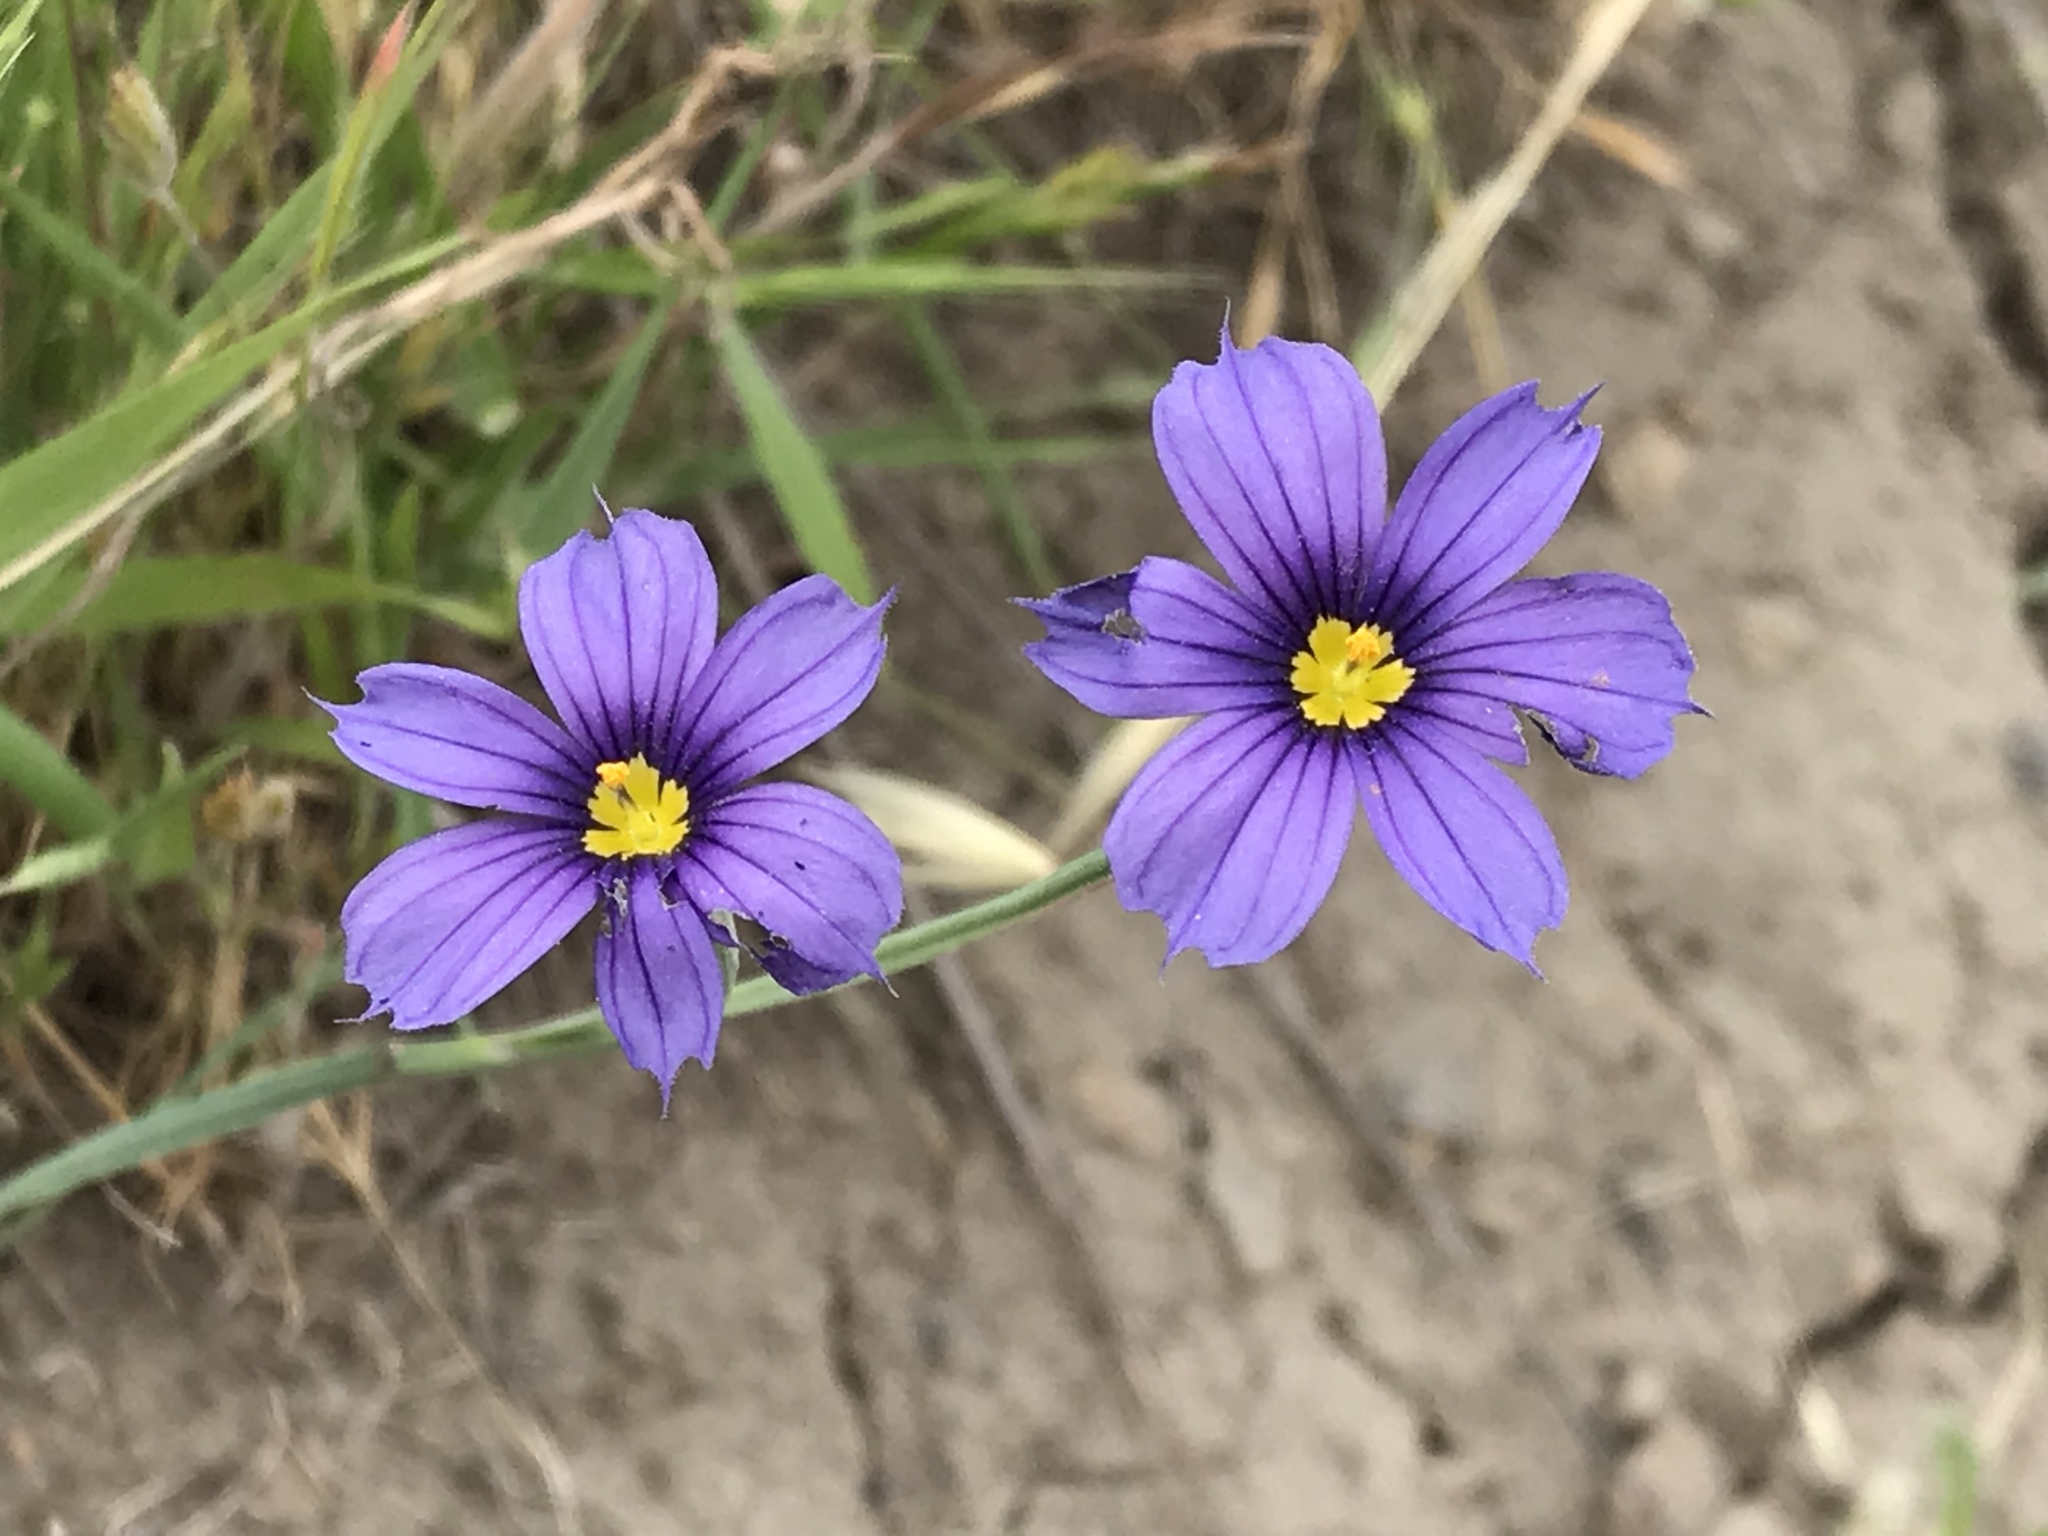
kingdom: Plantae
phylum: Tracheophyta
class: Liliopsida
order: Asparagales
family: Iridaceae
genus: Sisyrinchium
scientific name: Sisyrinchium bellum
